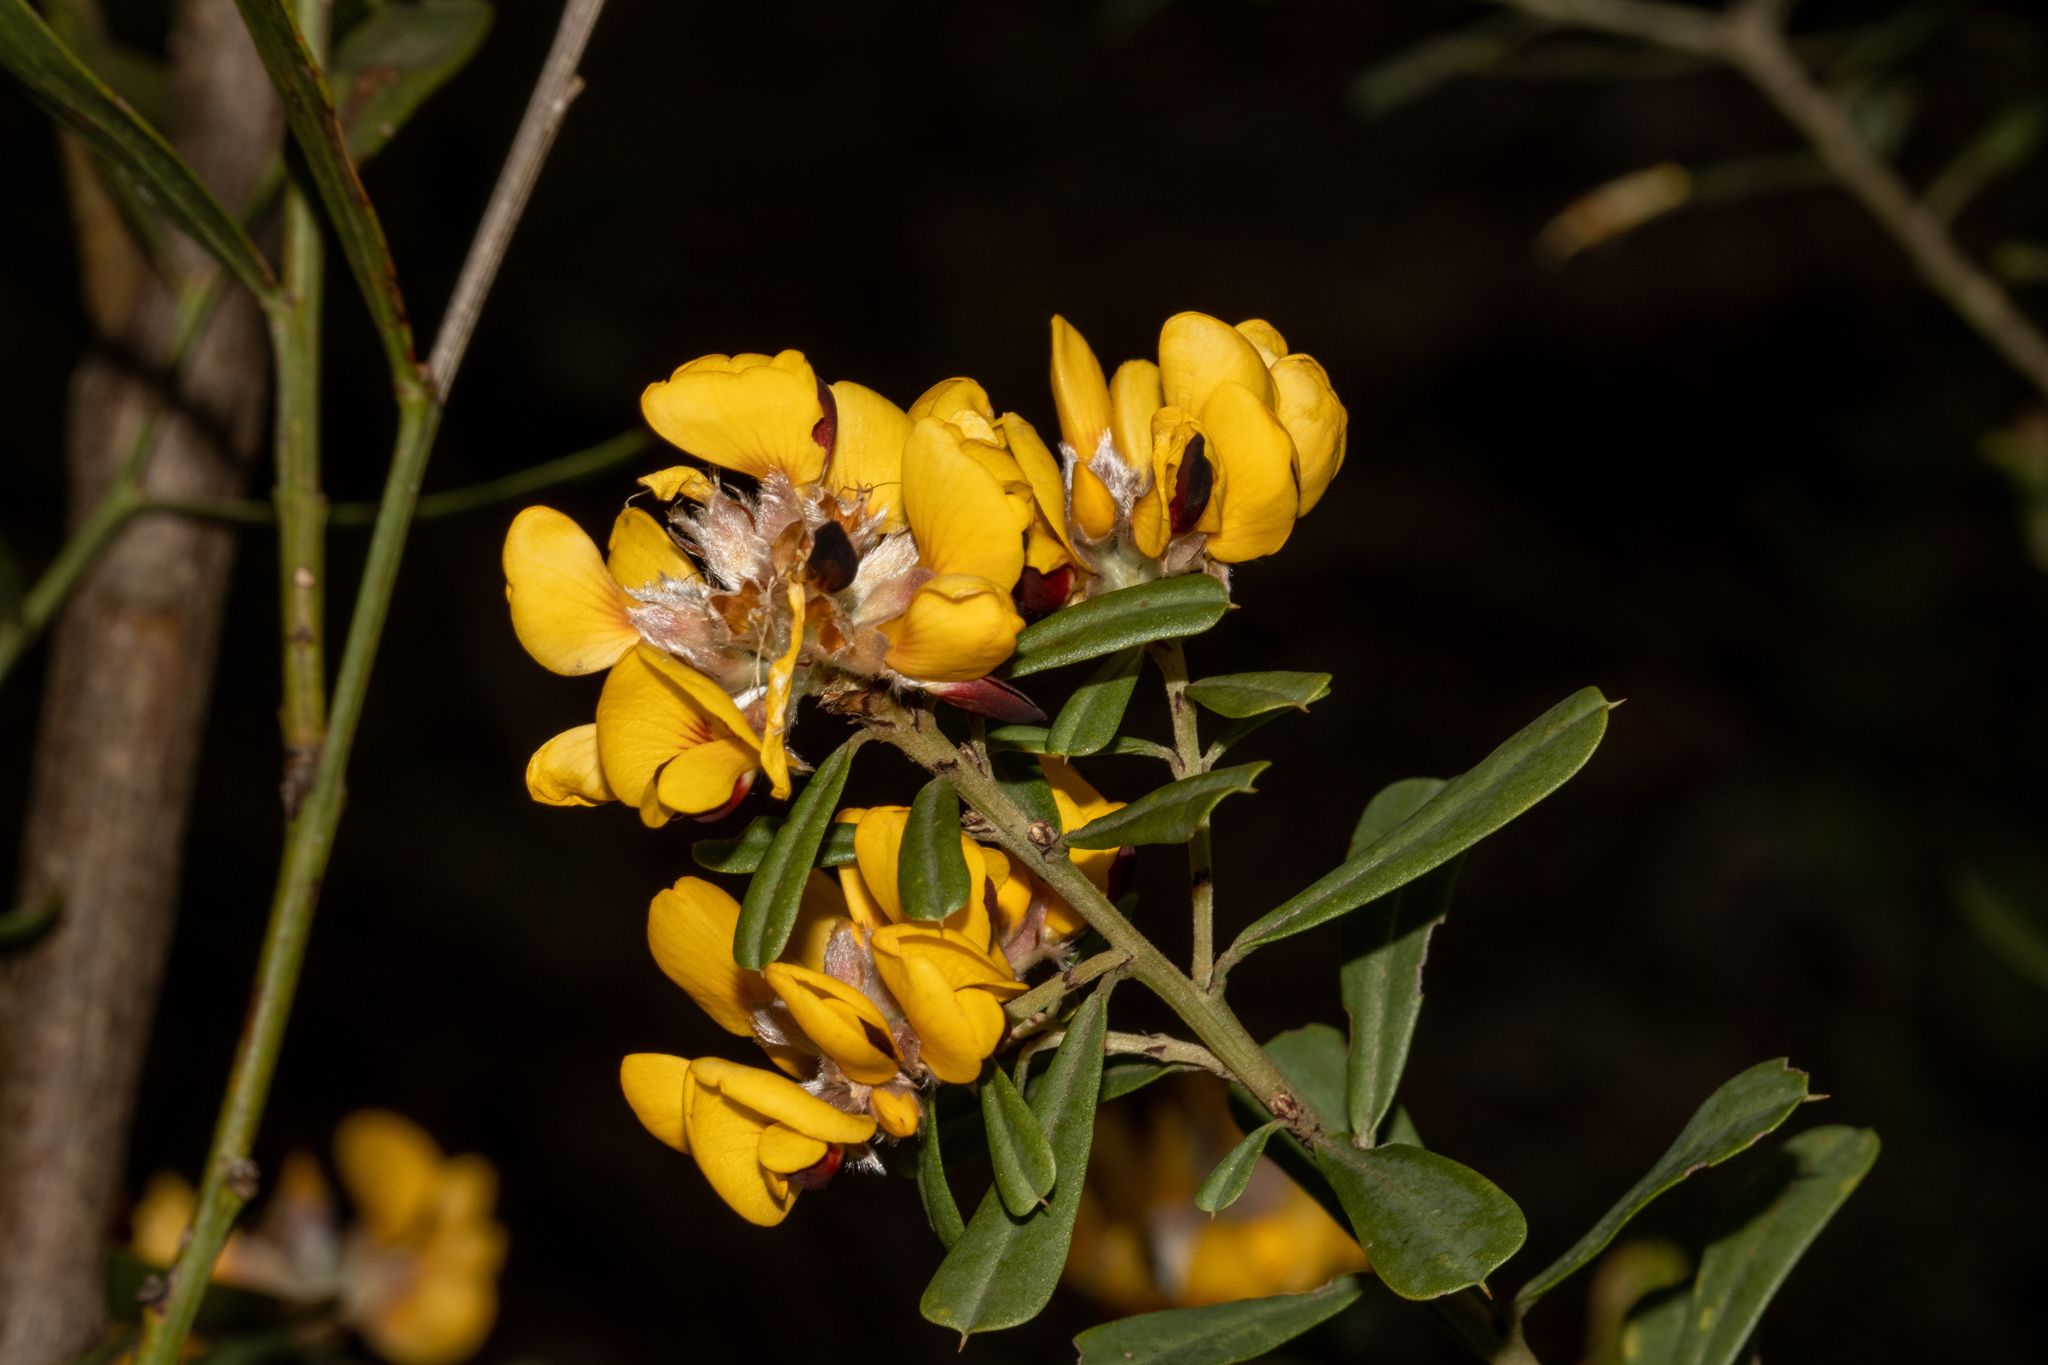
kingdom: Plantae
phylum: Tracheophyta
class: Magnoliopsida
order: Fabales
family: Fabaceae
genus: Pultenaea
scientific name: Pultenaea daphnoides
